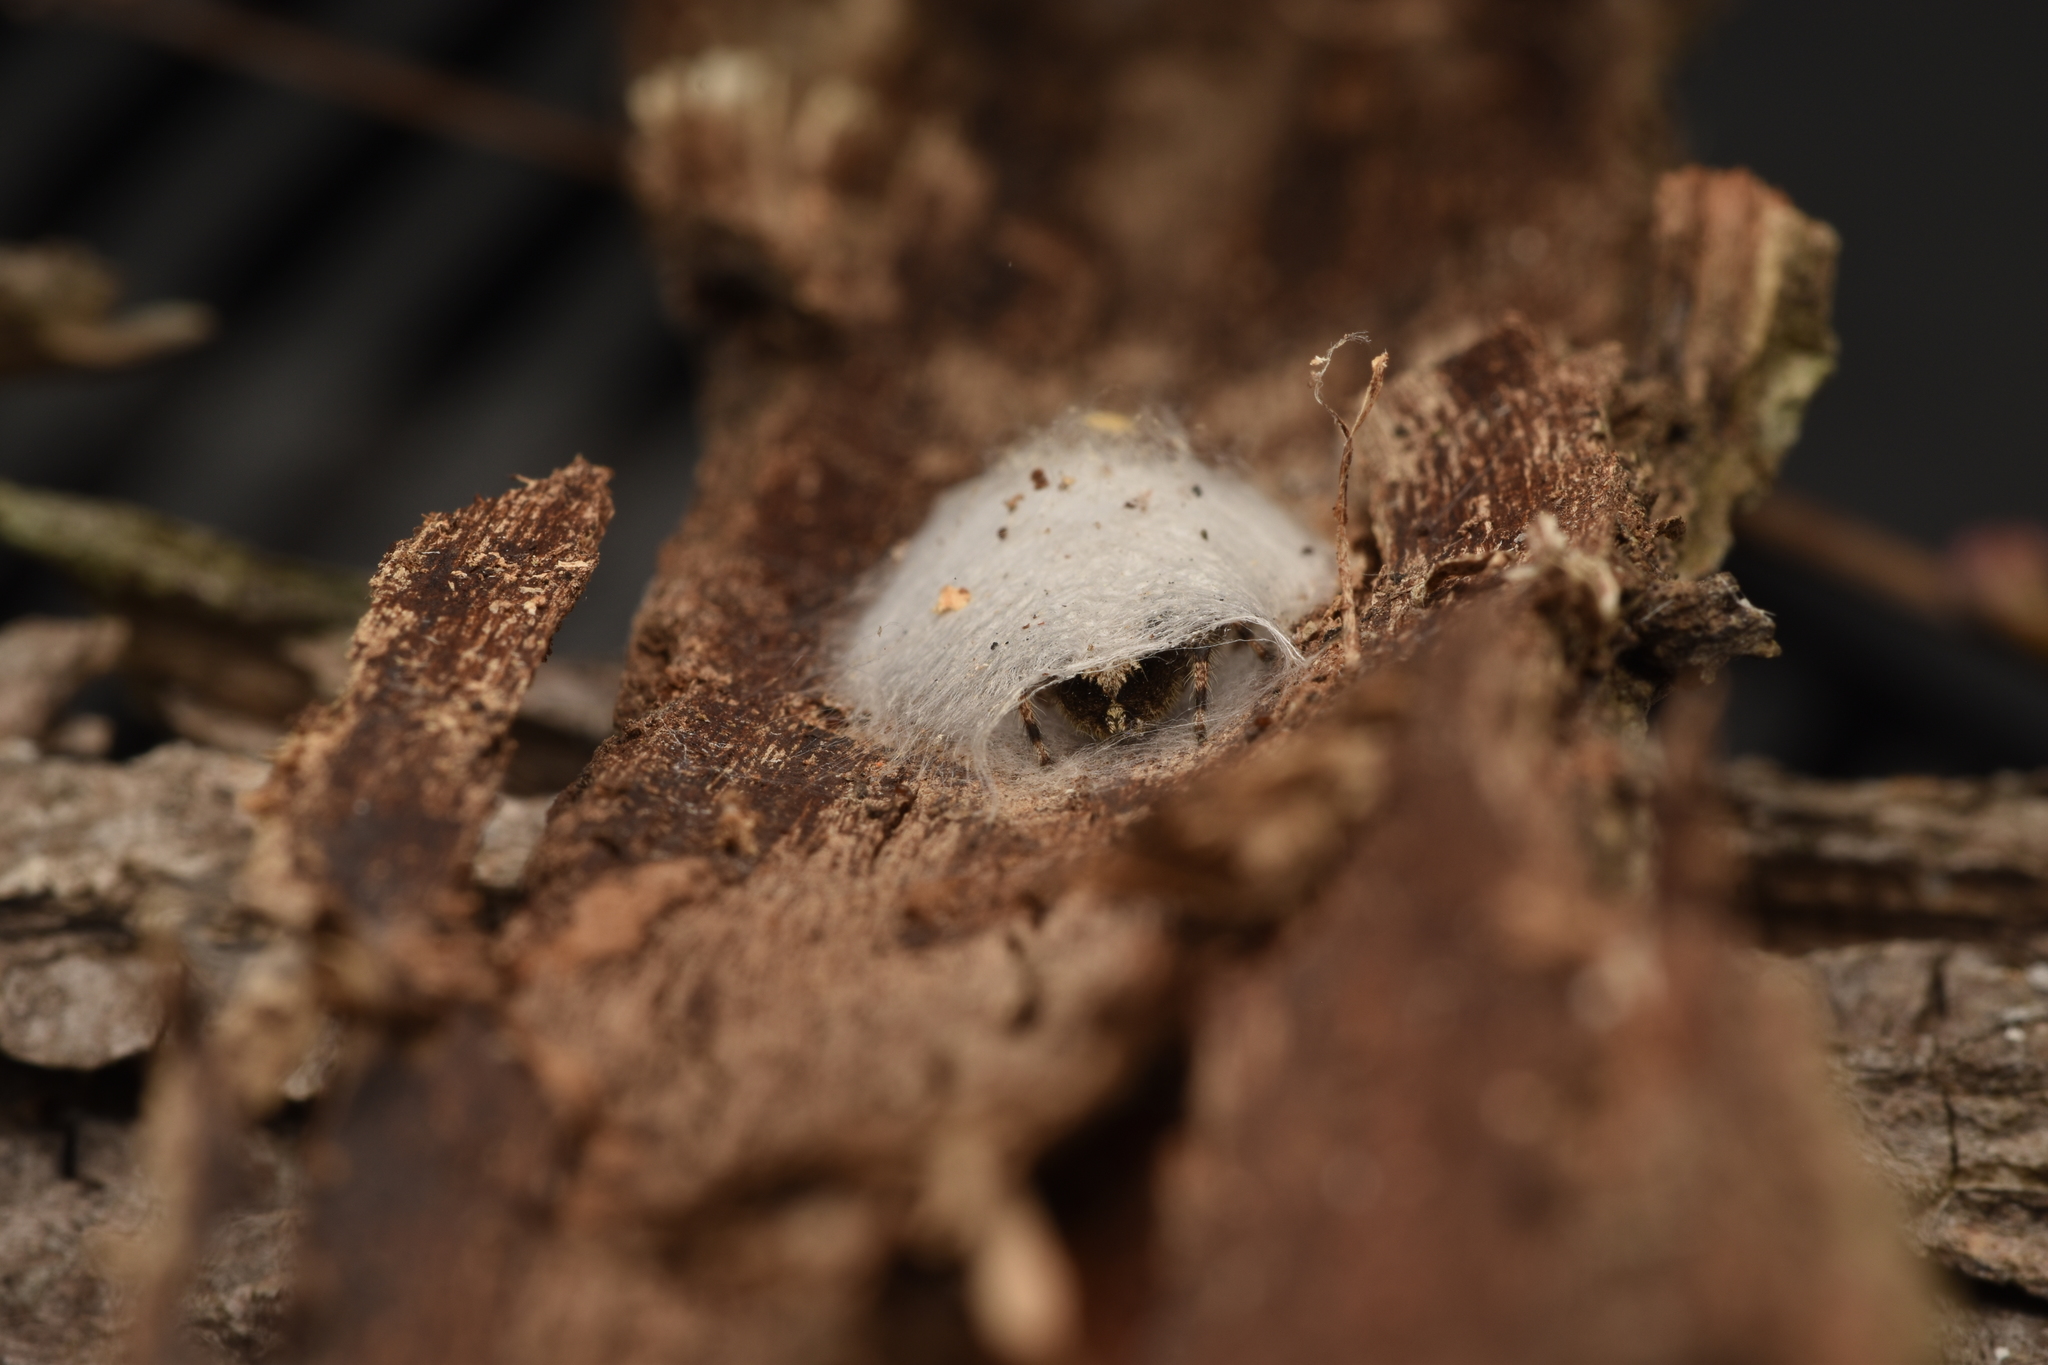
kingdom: Animalia
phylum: Arthropoda
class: Arachnida
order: Araneae
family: Salticidae
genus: Platycryptus
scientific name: Platycryptus undatus
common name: Tan jumping spider
